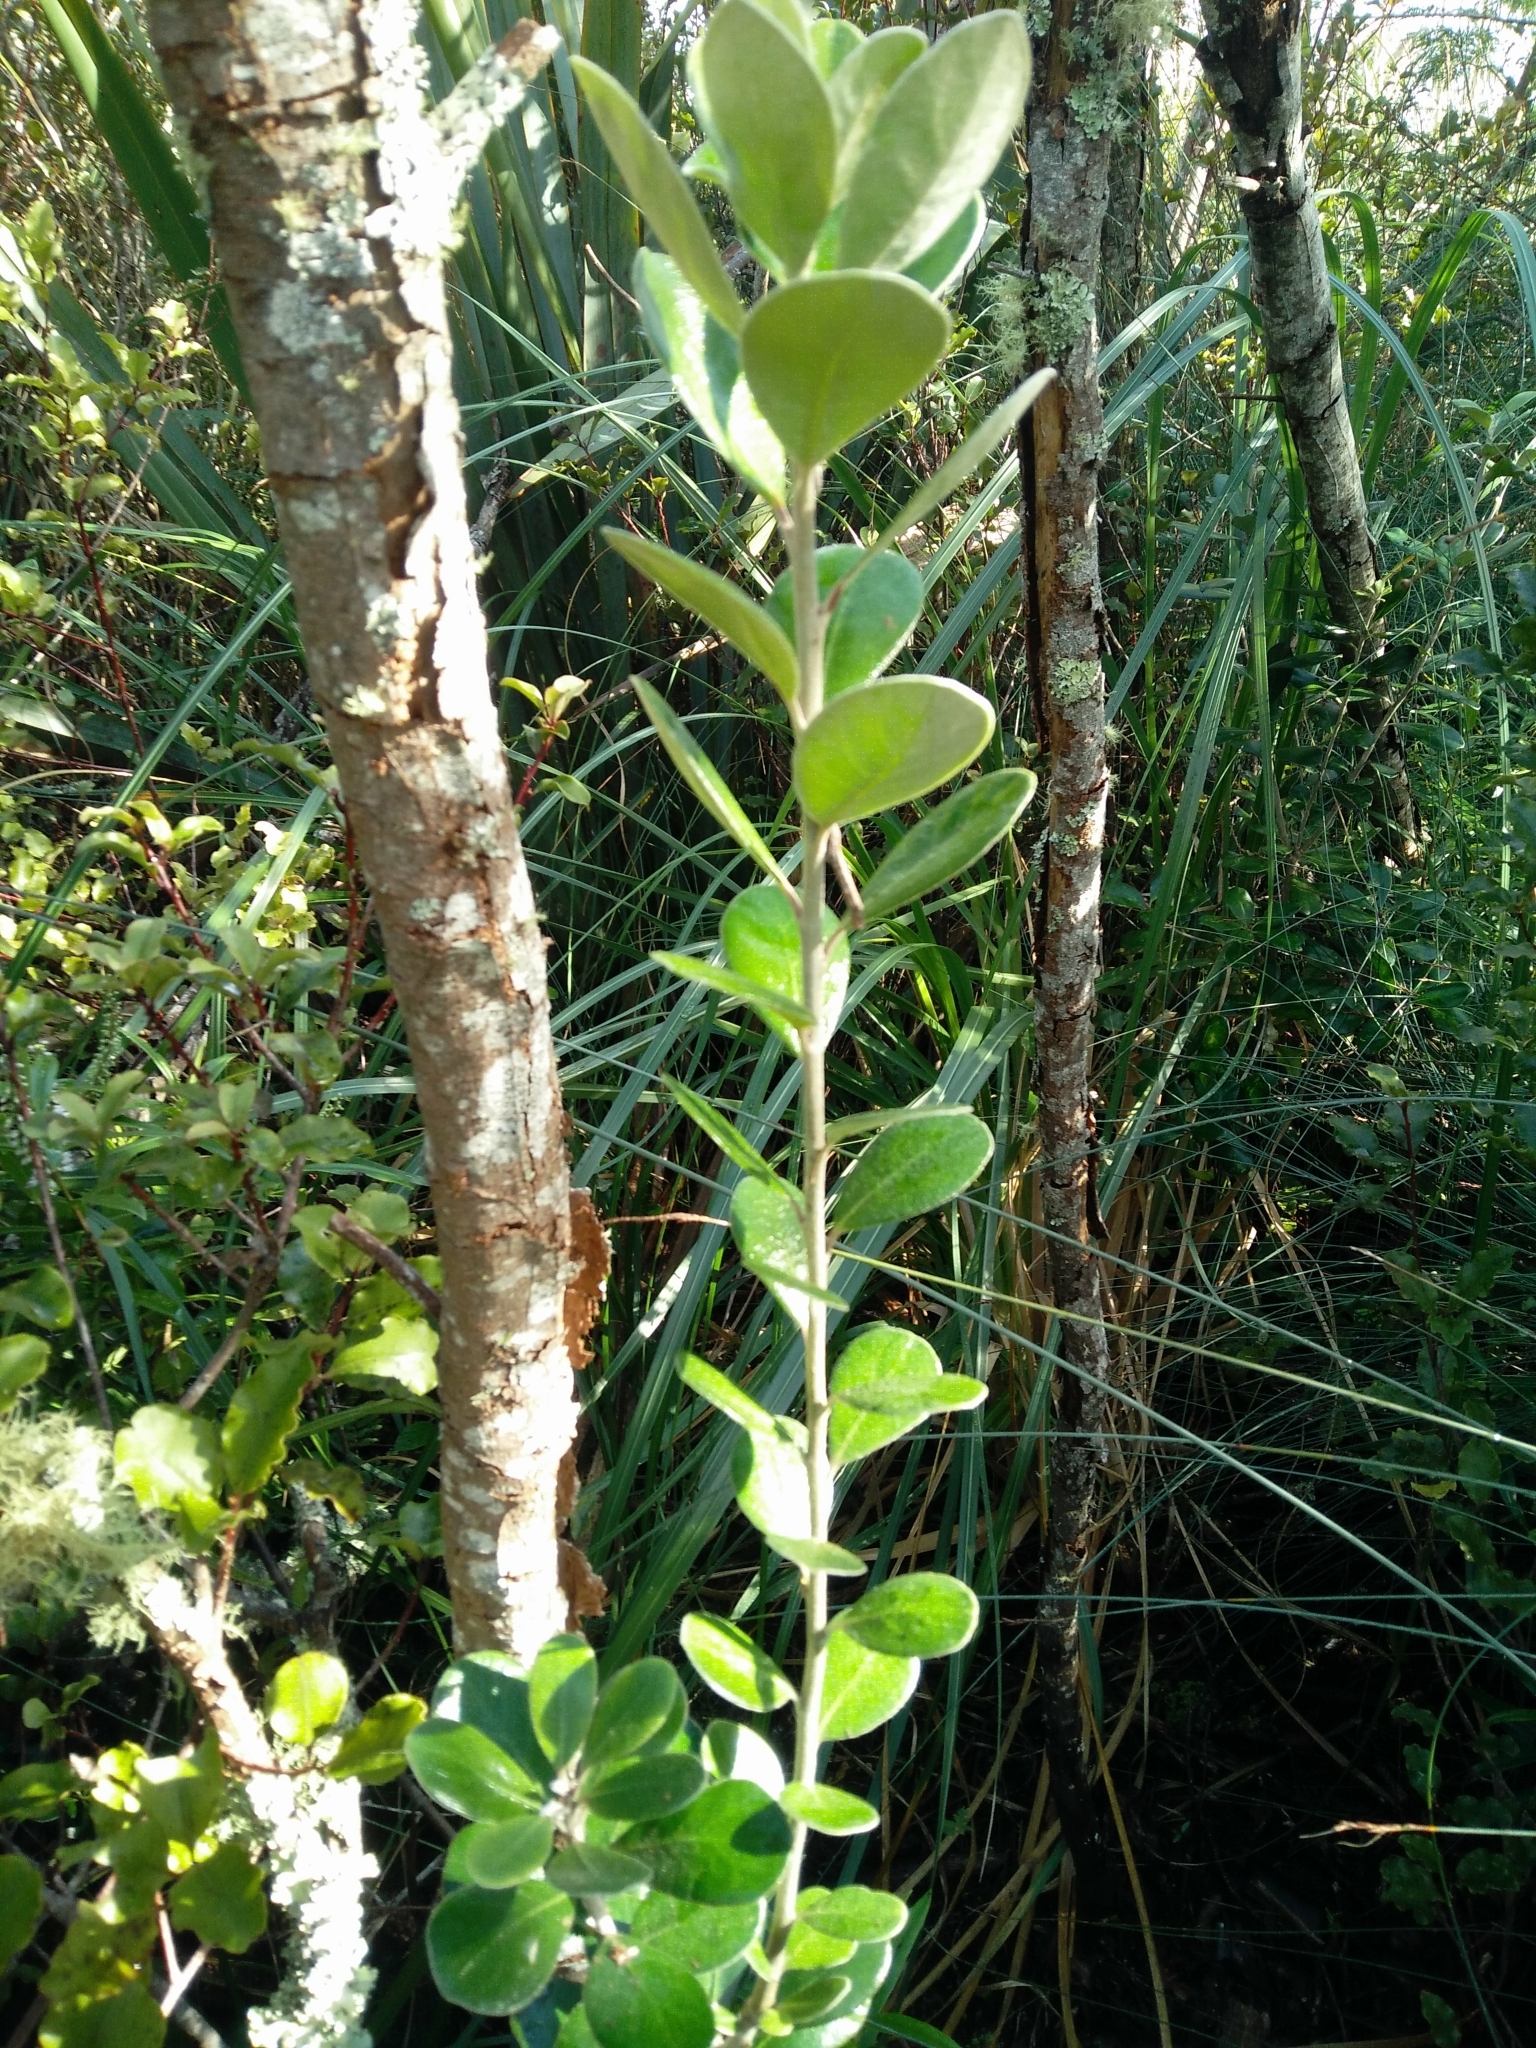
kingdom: Plantae
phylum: Tracheophyta
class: Magnoliopsida
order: Apiales
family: Pittosporaceae
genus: Pittosporum
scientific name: Pittosporum crassifolium
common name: Karo
